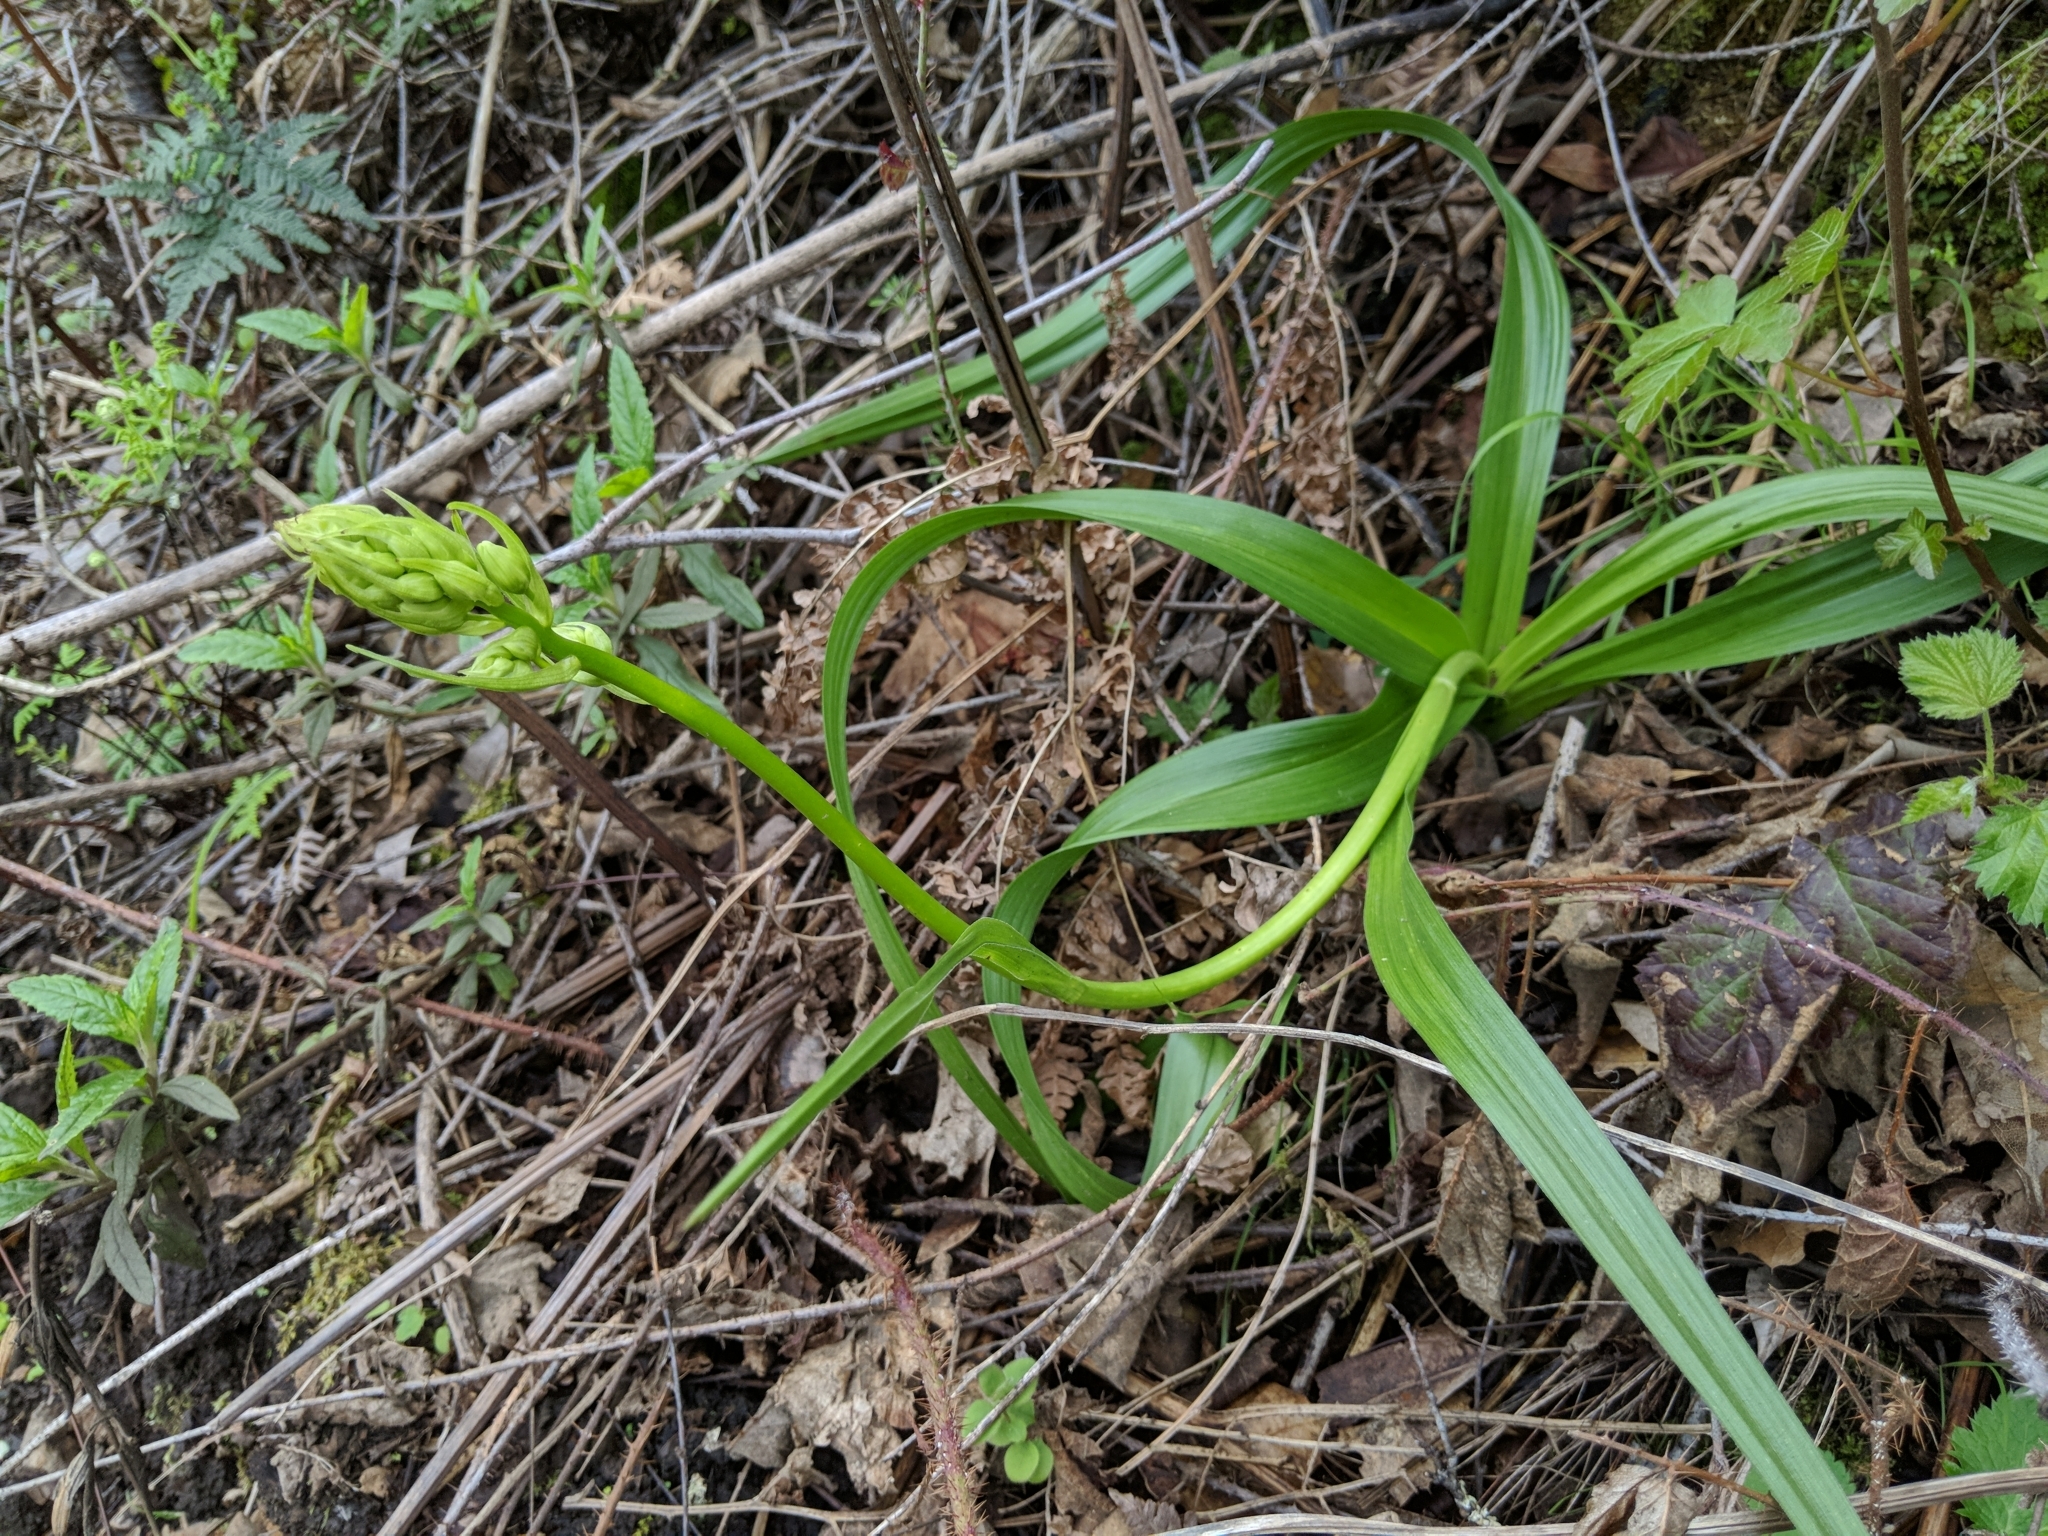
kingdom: Plantae
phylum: Tracheophyta
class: Liliopsida
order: Liliales
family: Melanthiaceae
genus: Toxicoscordion
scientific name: Toxicoscordion fremontii
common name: Fremont's death camas
